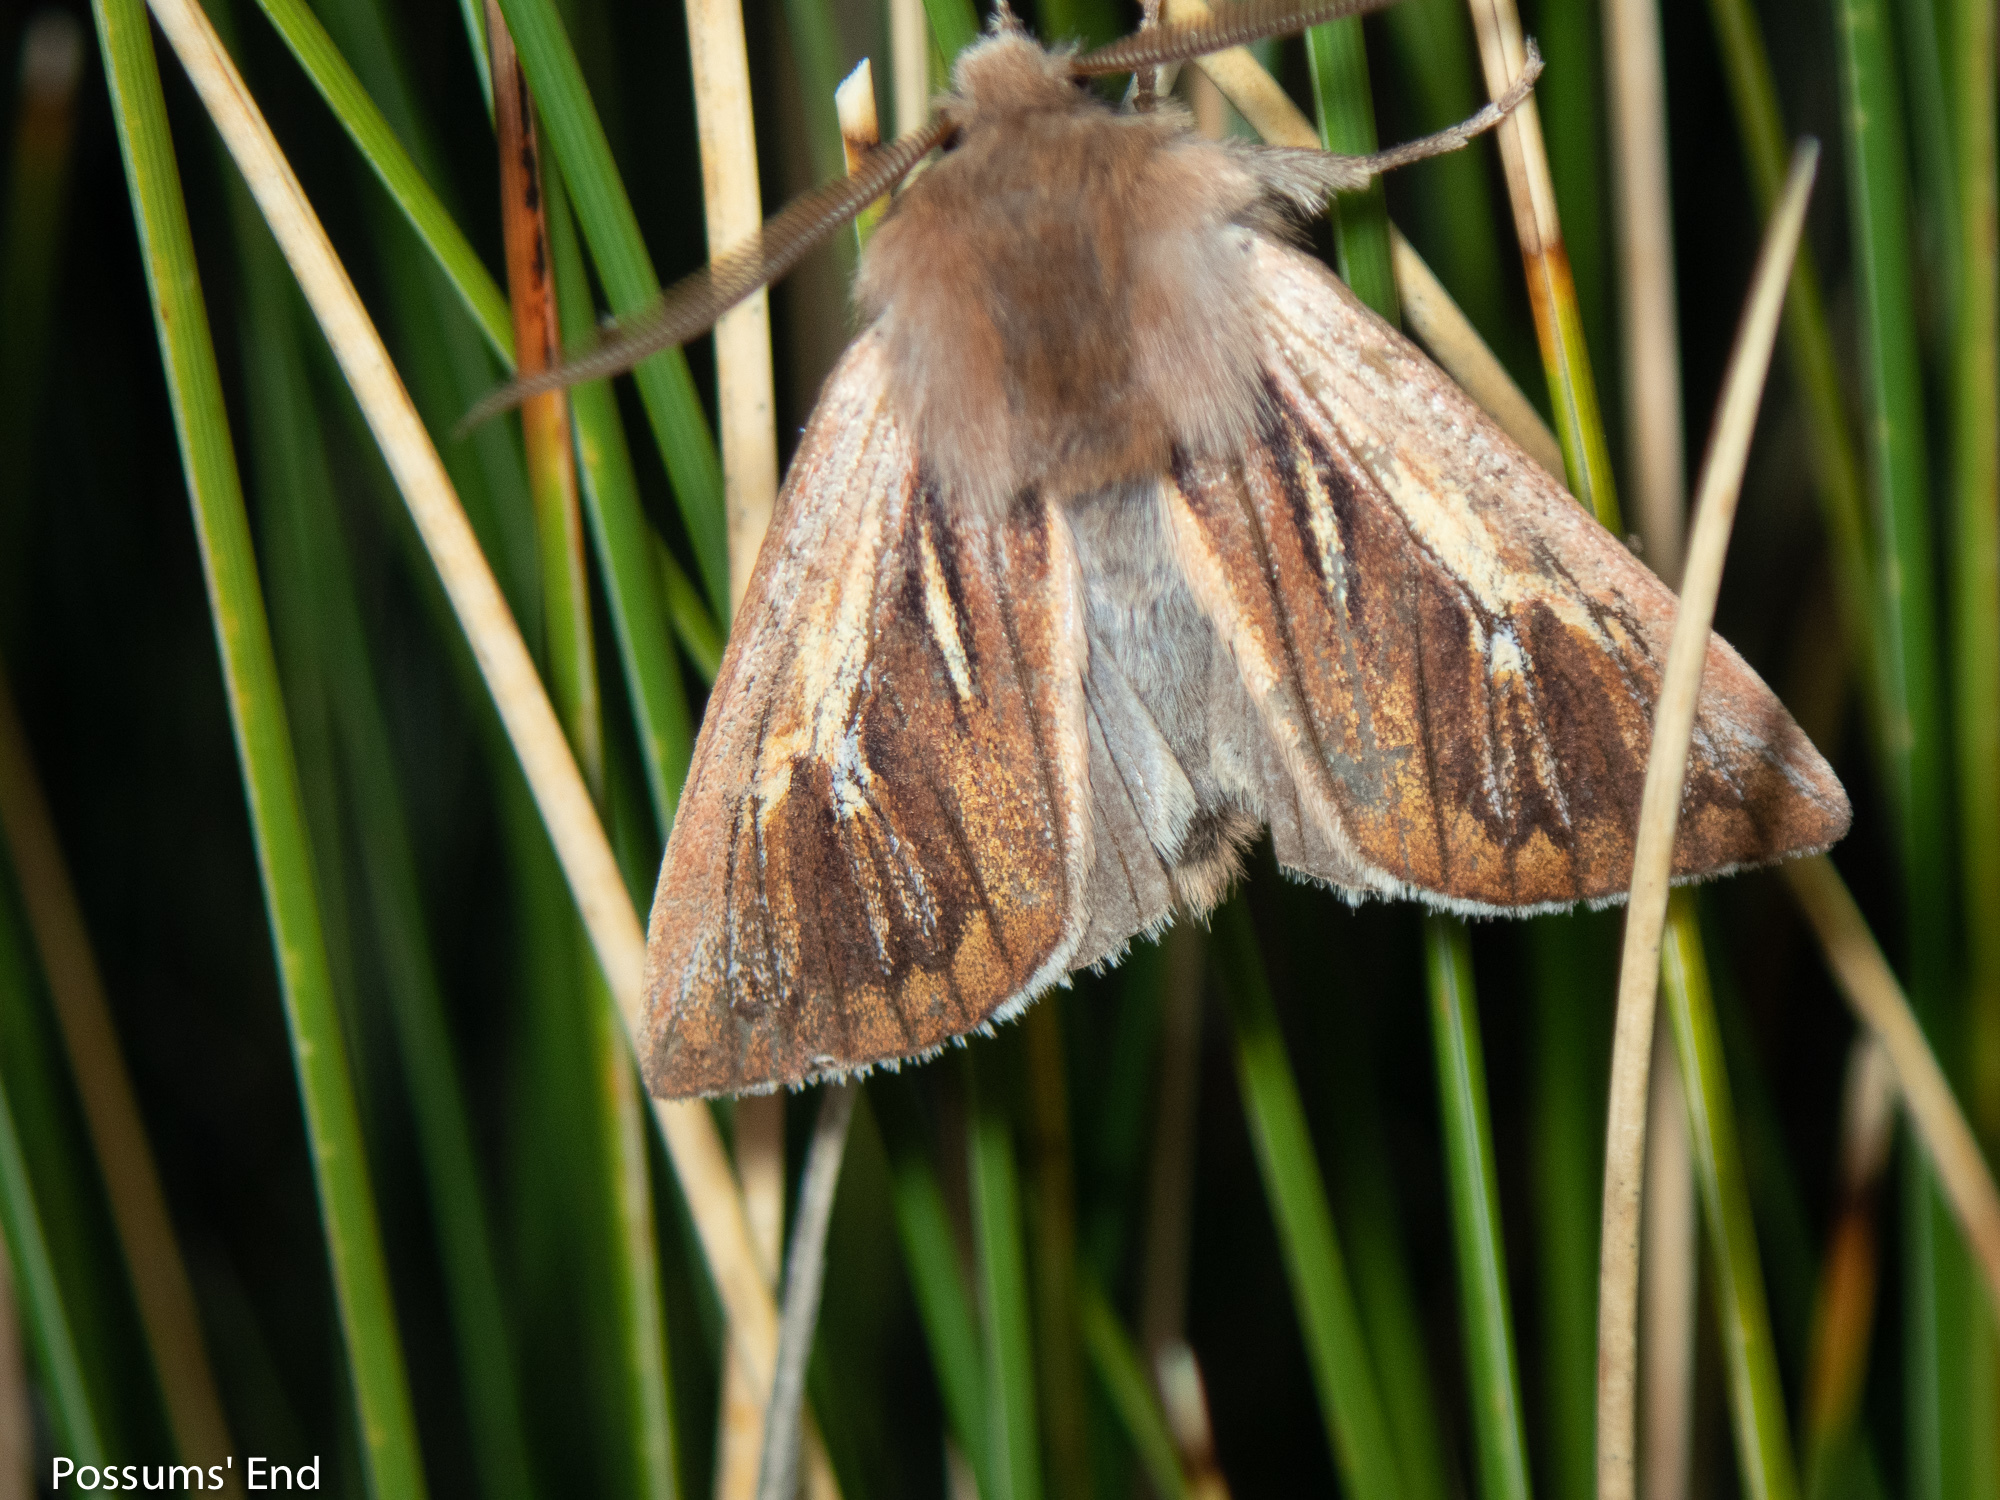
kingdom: Animalia
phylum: Arthropoda
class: Insecta
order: Lepidoptera
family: Noctuidae
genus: Ichneutica
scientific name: Ichneutica dione
